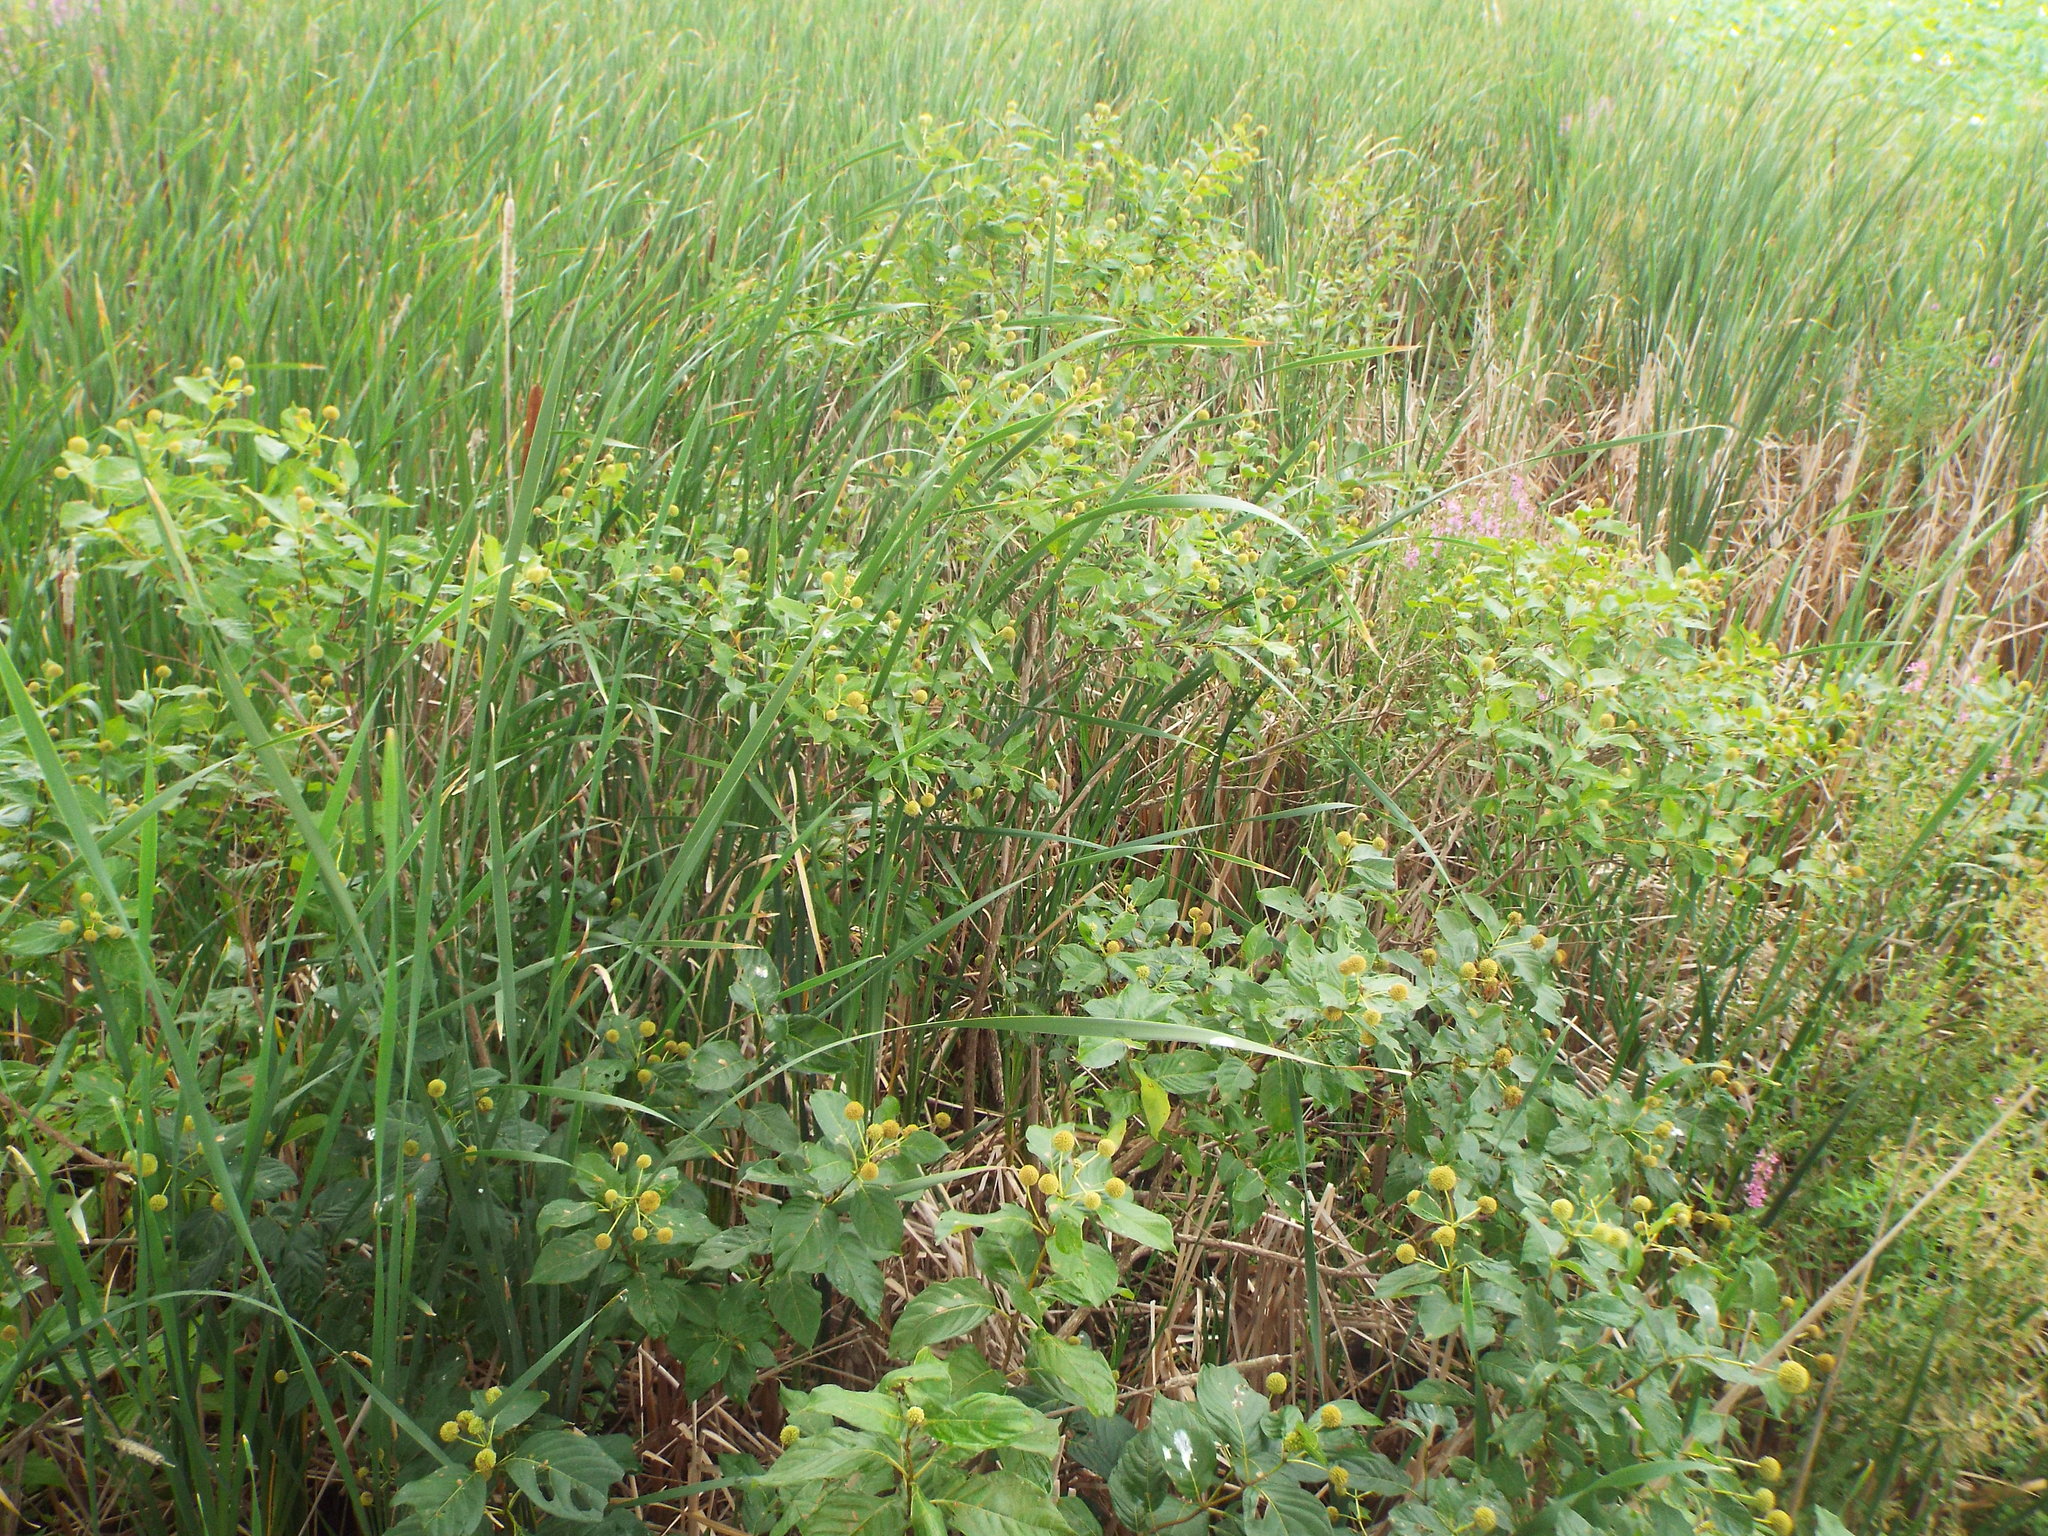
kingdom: Plantae
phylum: Tracheophyta
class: Magnoliopsida
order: Gentianales
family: Rubiaceae
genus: Cephalanthus
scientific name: Cephalanthus occidentalis
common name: Button-willow
